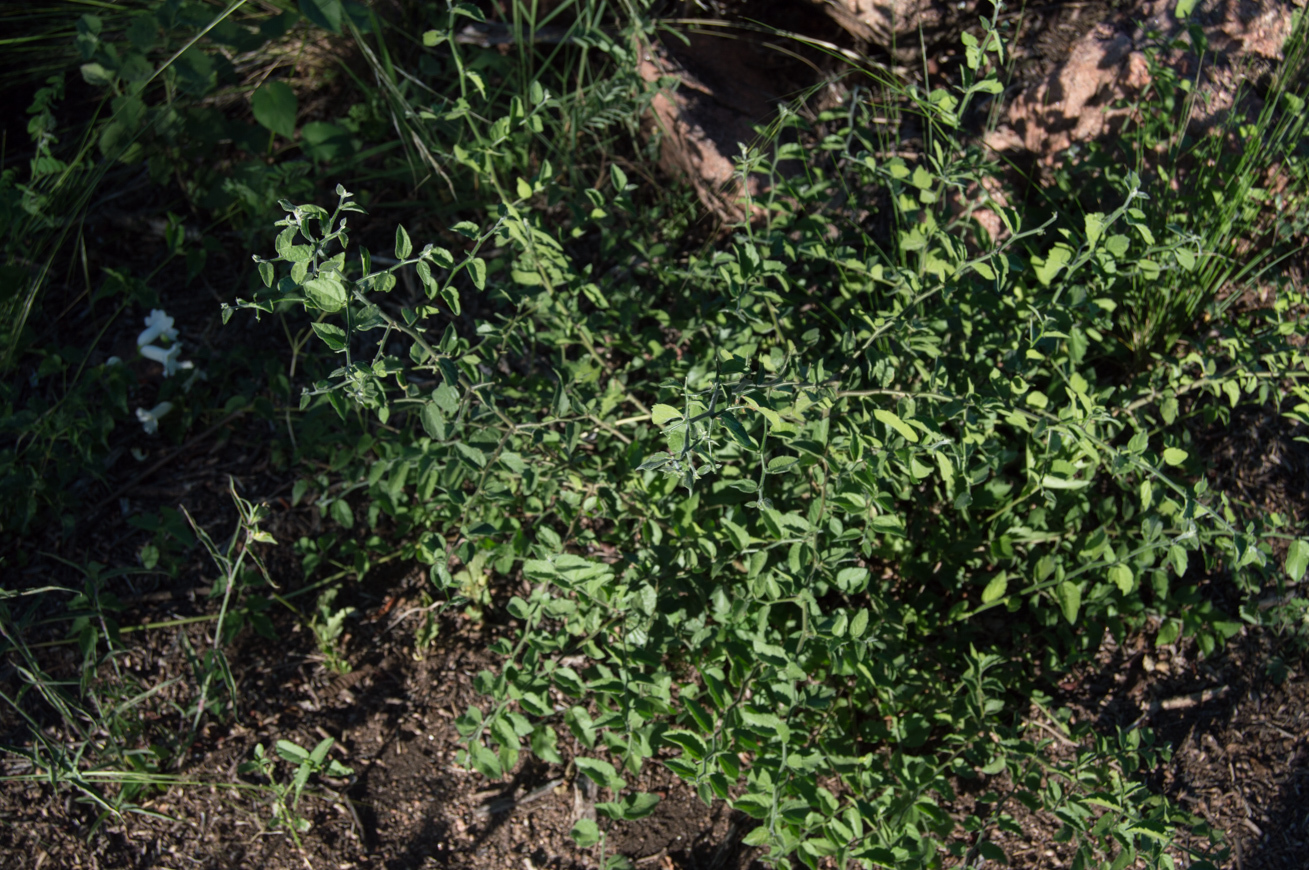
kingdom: Plantae
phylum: Tracheophyta
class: Magnoliopsida
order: Rosales
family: Cannabaceae
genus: Celtis
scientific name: Celtis chicape
